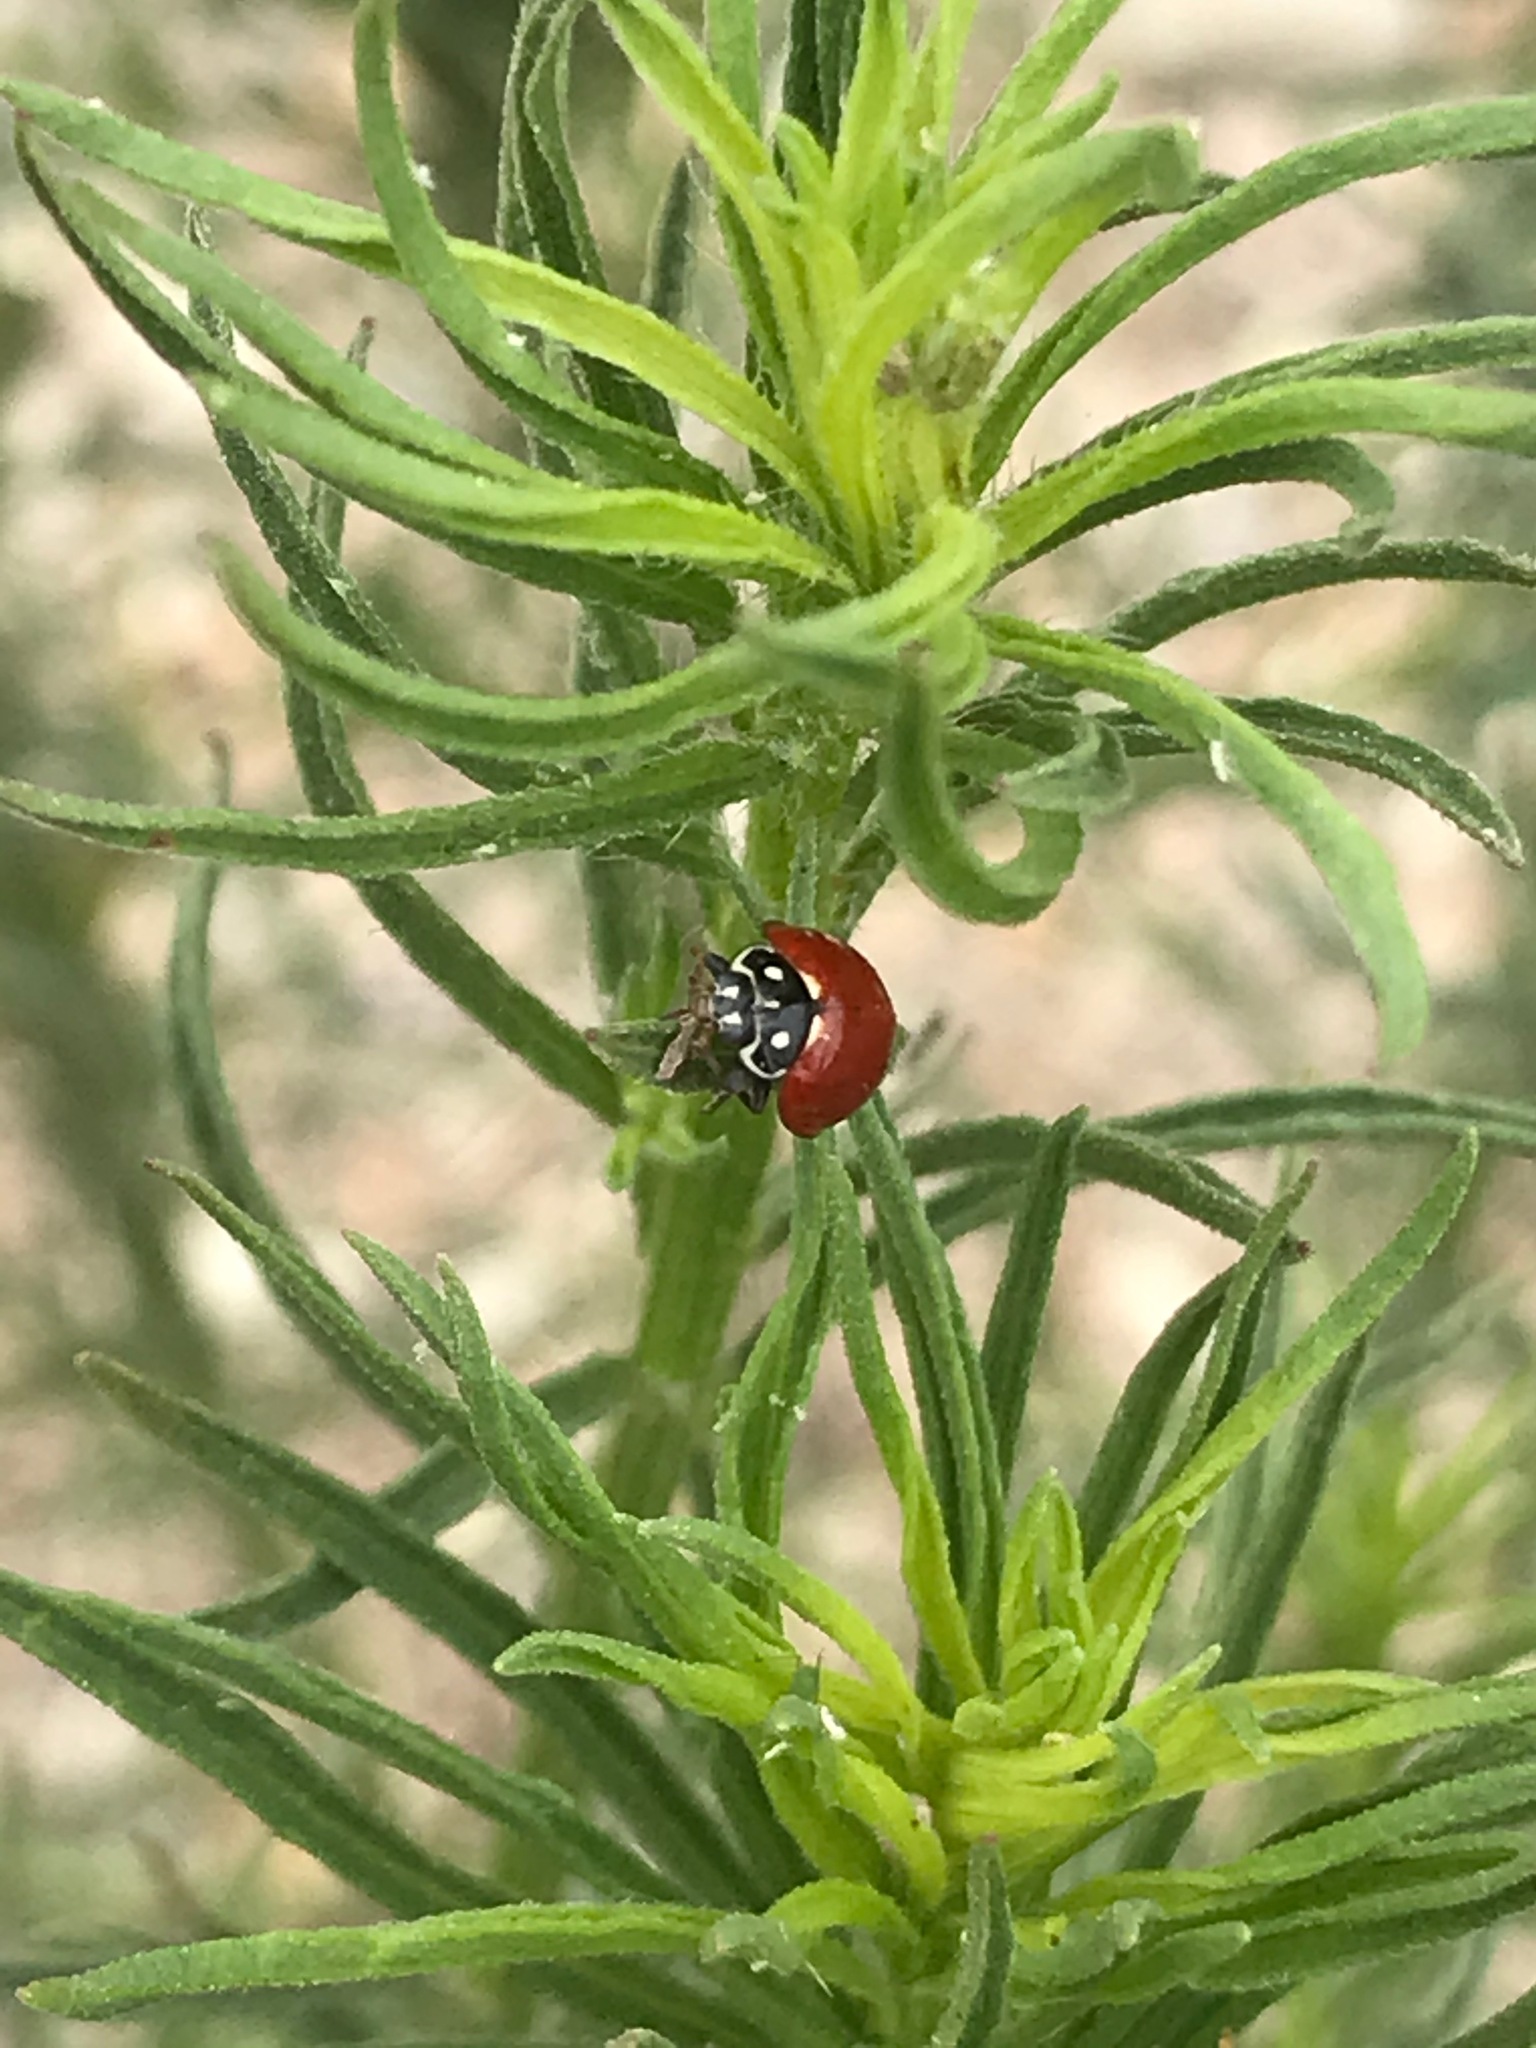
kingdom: Animalia
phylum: Arthropoda
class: Insecta
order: Coleoptera
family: Coccinellidae
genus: Cycloneda
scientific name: Cycloneda sanguinea
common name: Ladybird beetle
